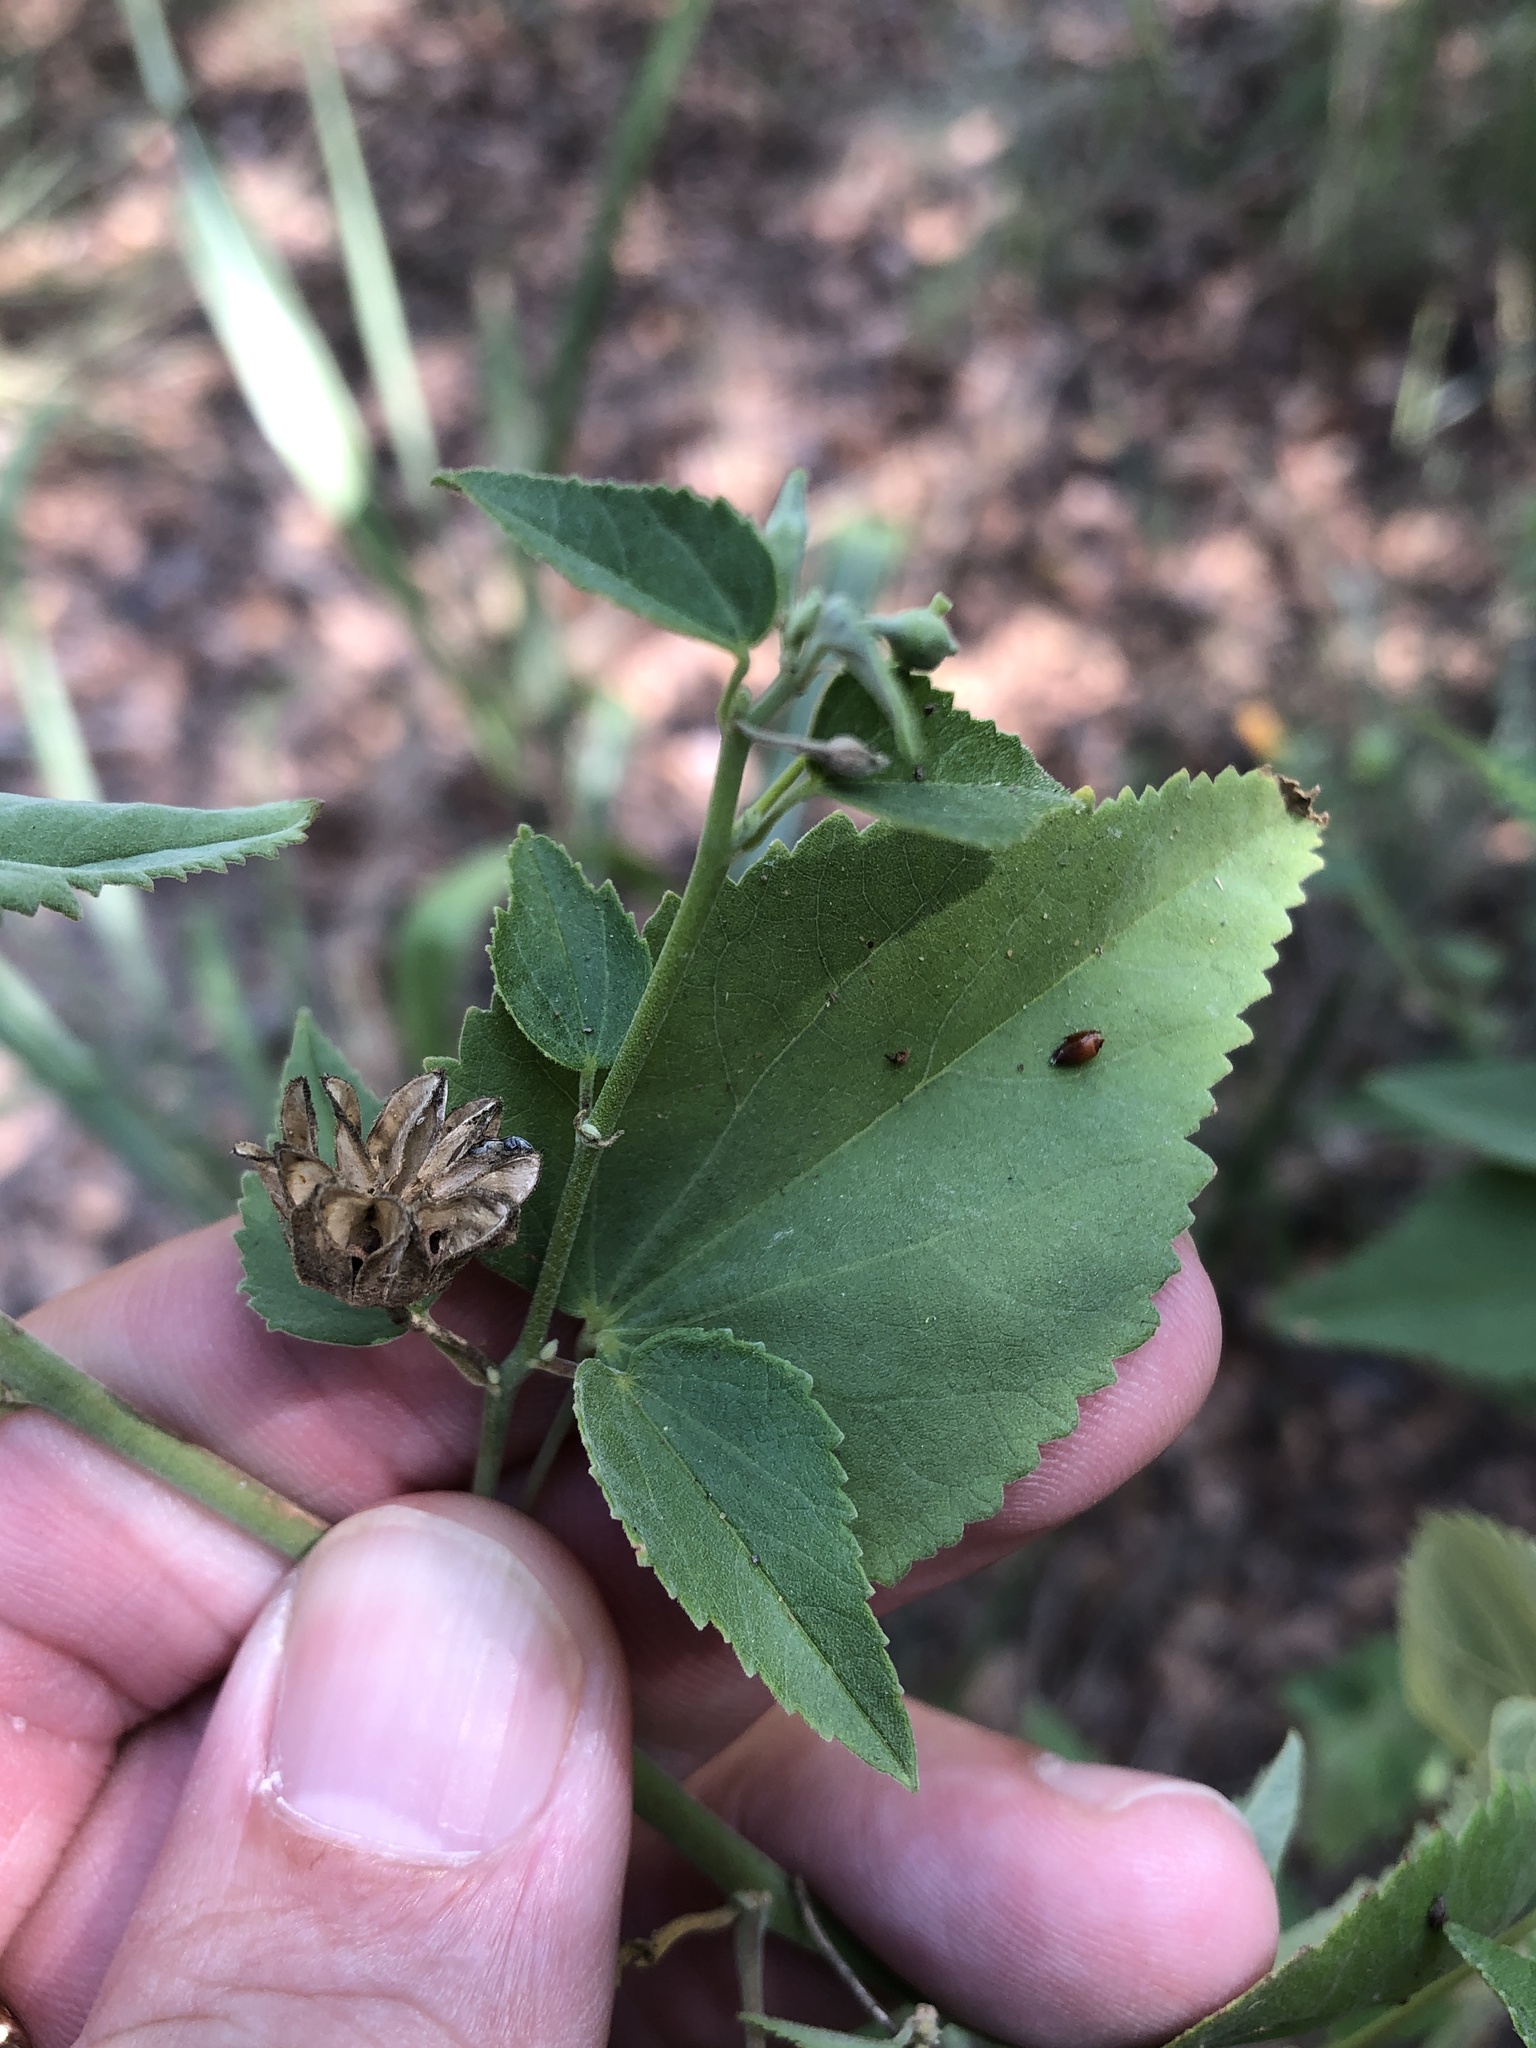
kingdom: Plantae
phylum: Tracheophyta
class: Magnoliopsida
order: Malvales
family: Malvaceae
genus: Abutilon
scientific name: Abutilon fruticosum
